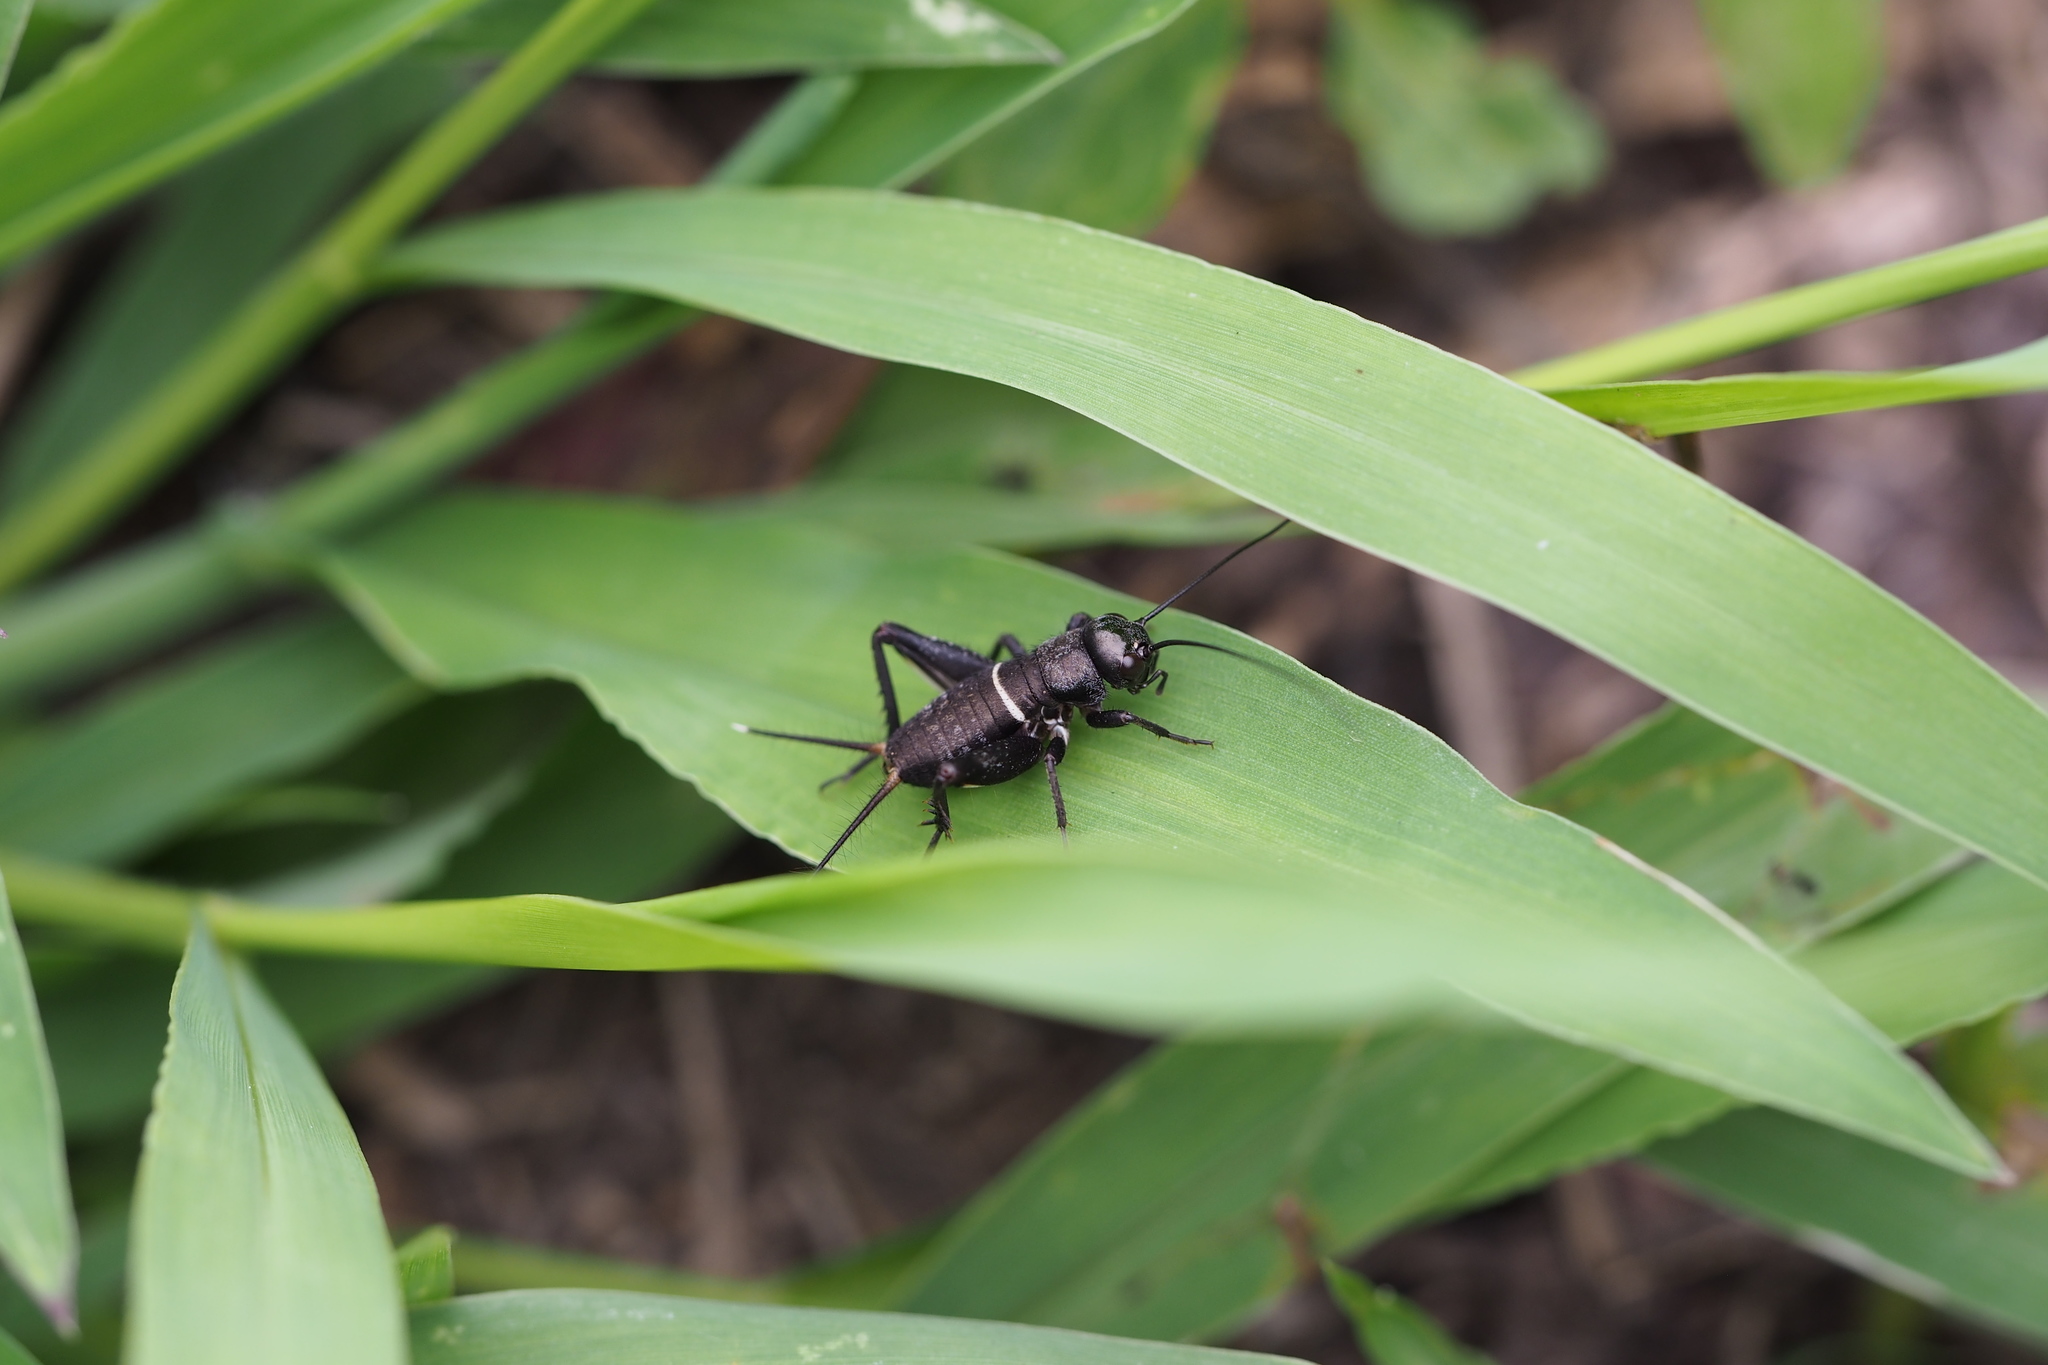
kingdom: Animalia
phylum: Arthropoda
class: Insecta
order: Orthoptera
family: Gryllidae
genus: Teleogryllus
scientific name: Teleogryllus emma
